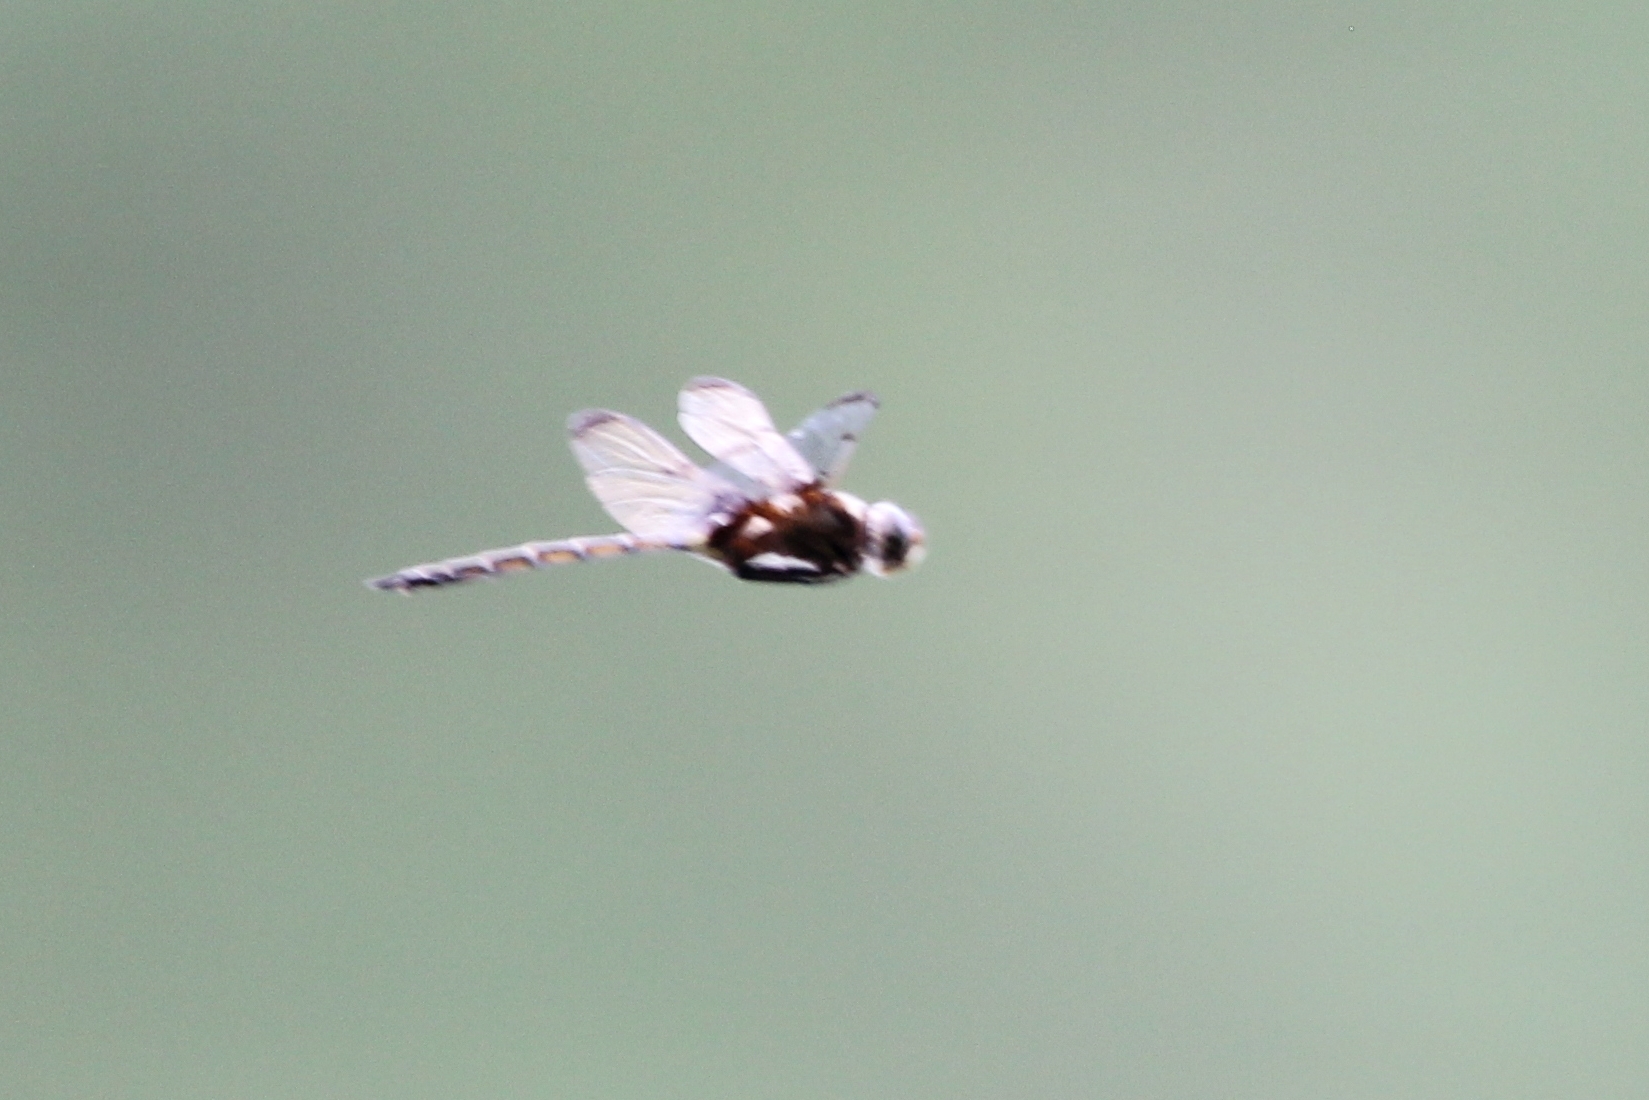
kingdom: Animalia
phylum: Arthropoda
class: Insecta
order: Odonata
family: Corduliidae
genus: Epitheca
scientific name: Epitheca princeps
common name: Prince baskettail
